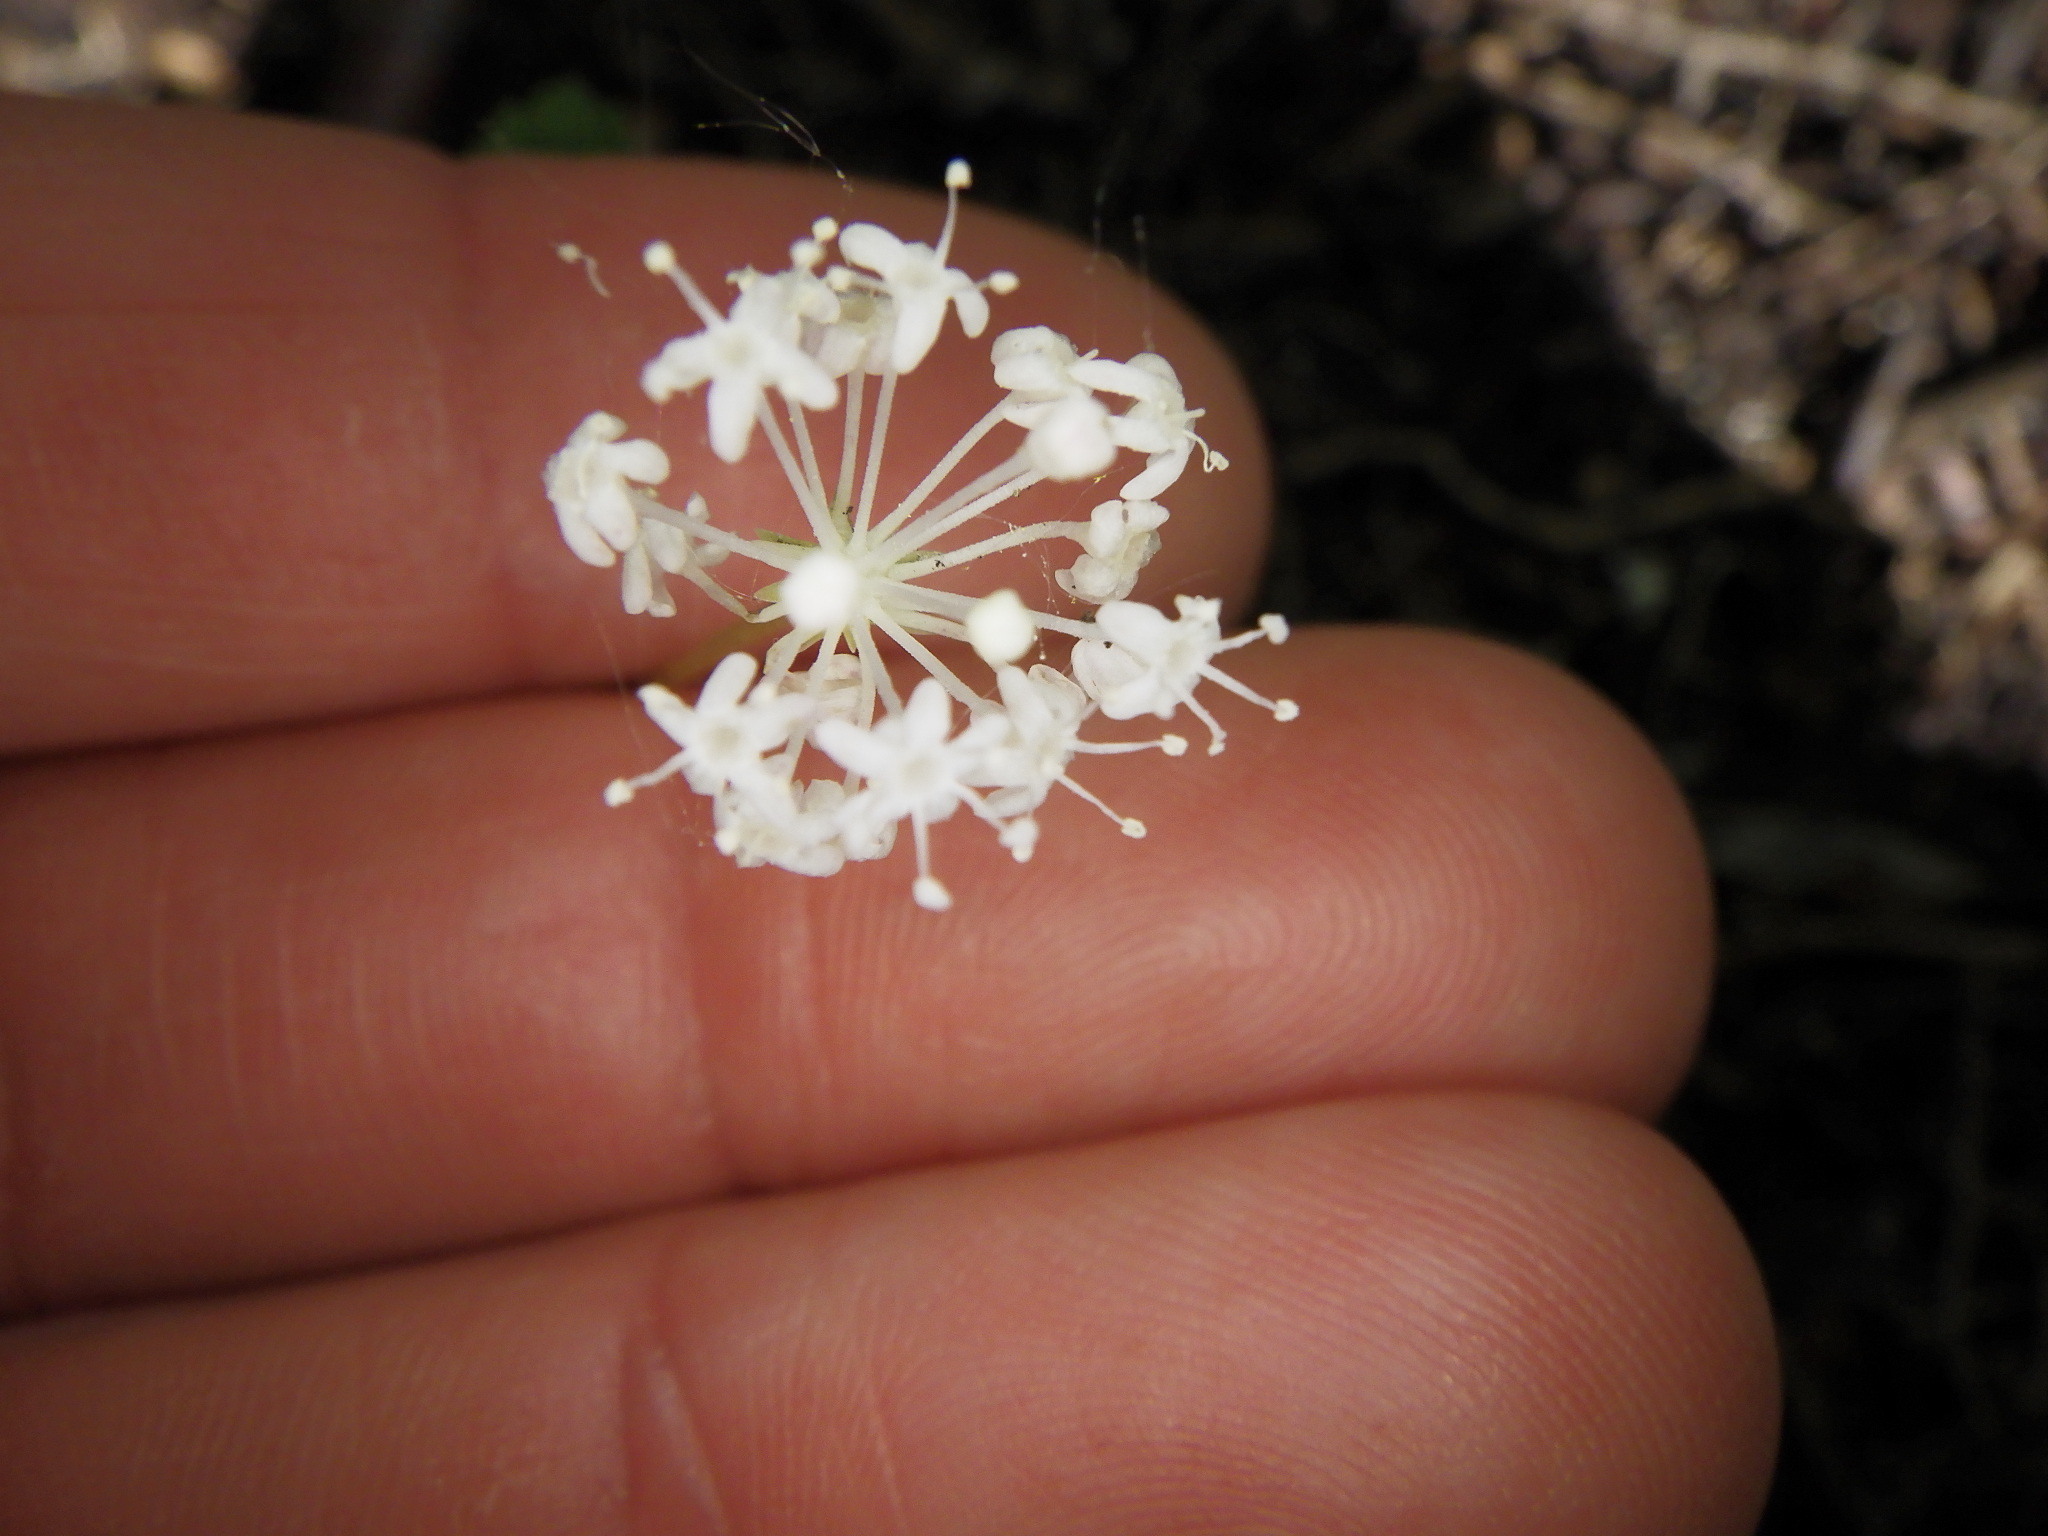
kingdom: Plantae
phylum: Tracheophyta
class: Magnoliopsida
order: Apiales
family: Araliaceae
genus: Panax
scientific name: Panax trifolius
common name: Dwarf ginseng
